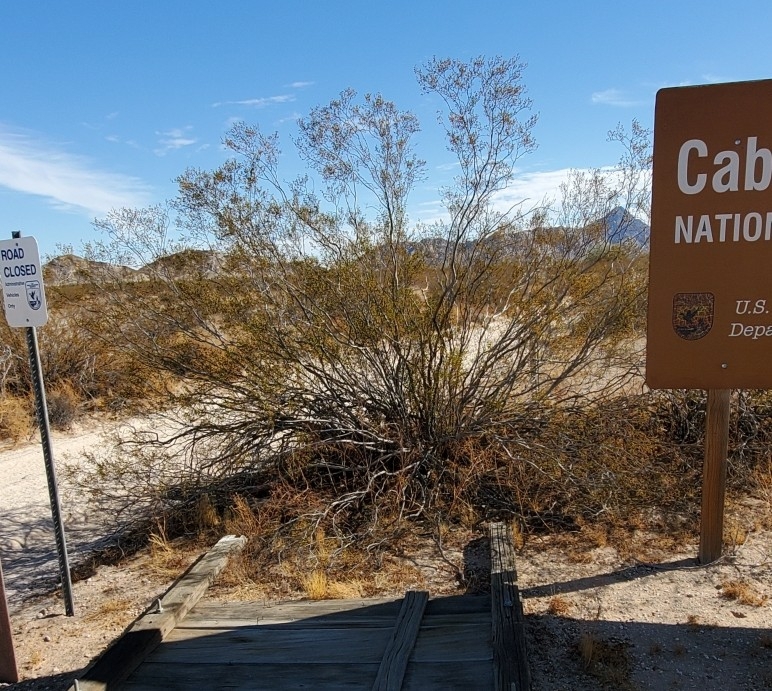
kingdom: Plantae
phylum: Tracheophyta
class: Magnoliopsida
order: Zygophyllales
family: Zygophyllaceae
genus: Larrea
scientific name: Larrea tridentata
